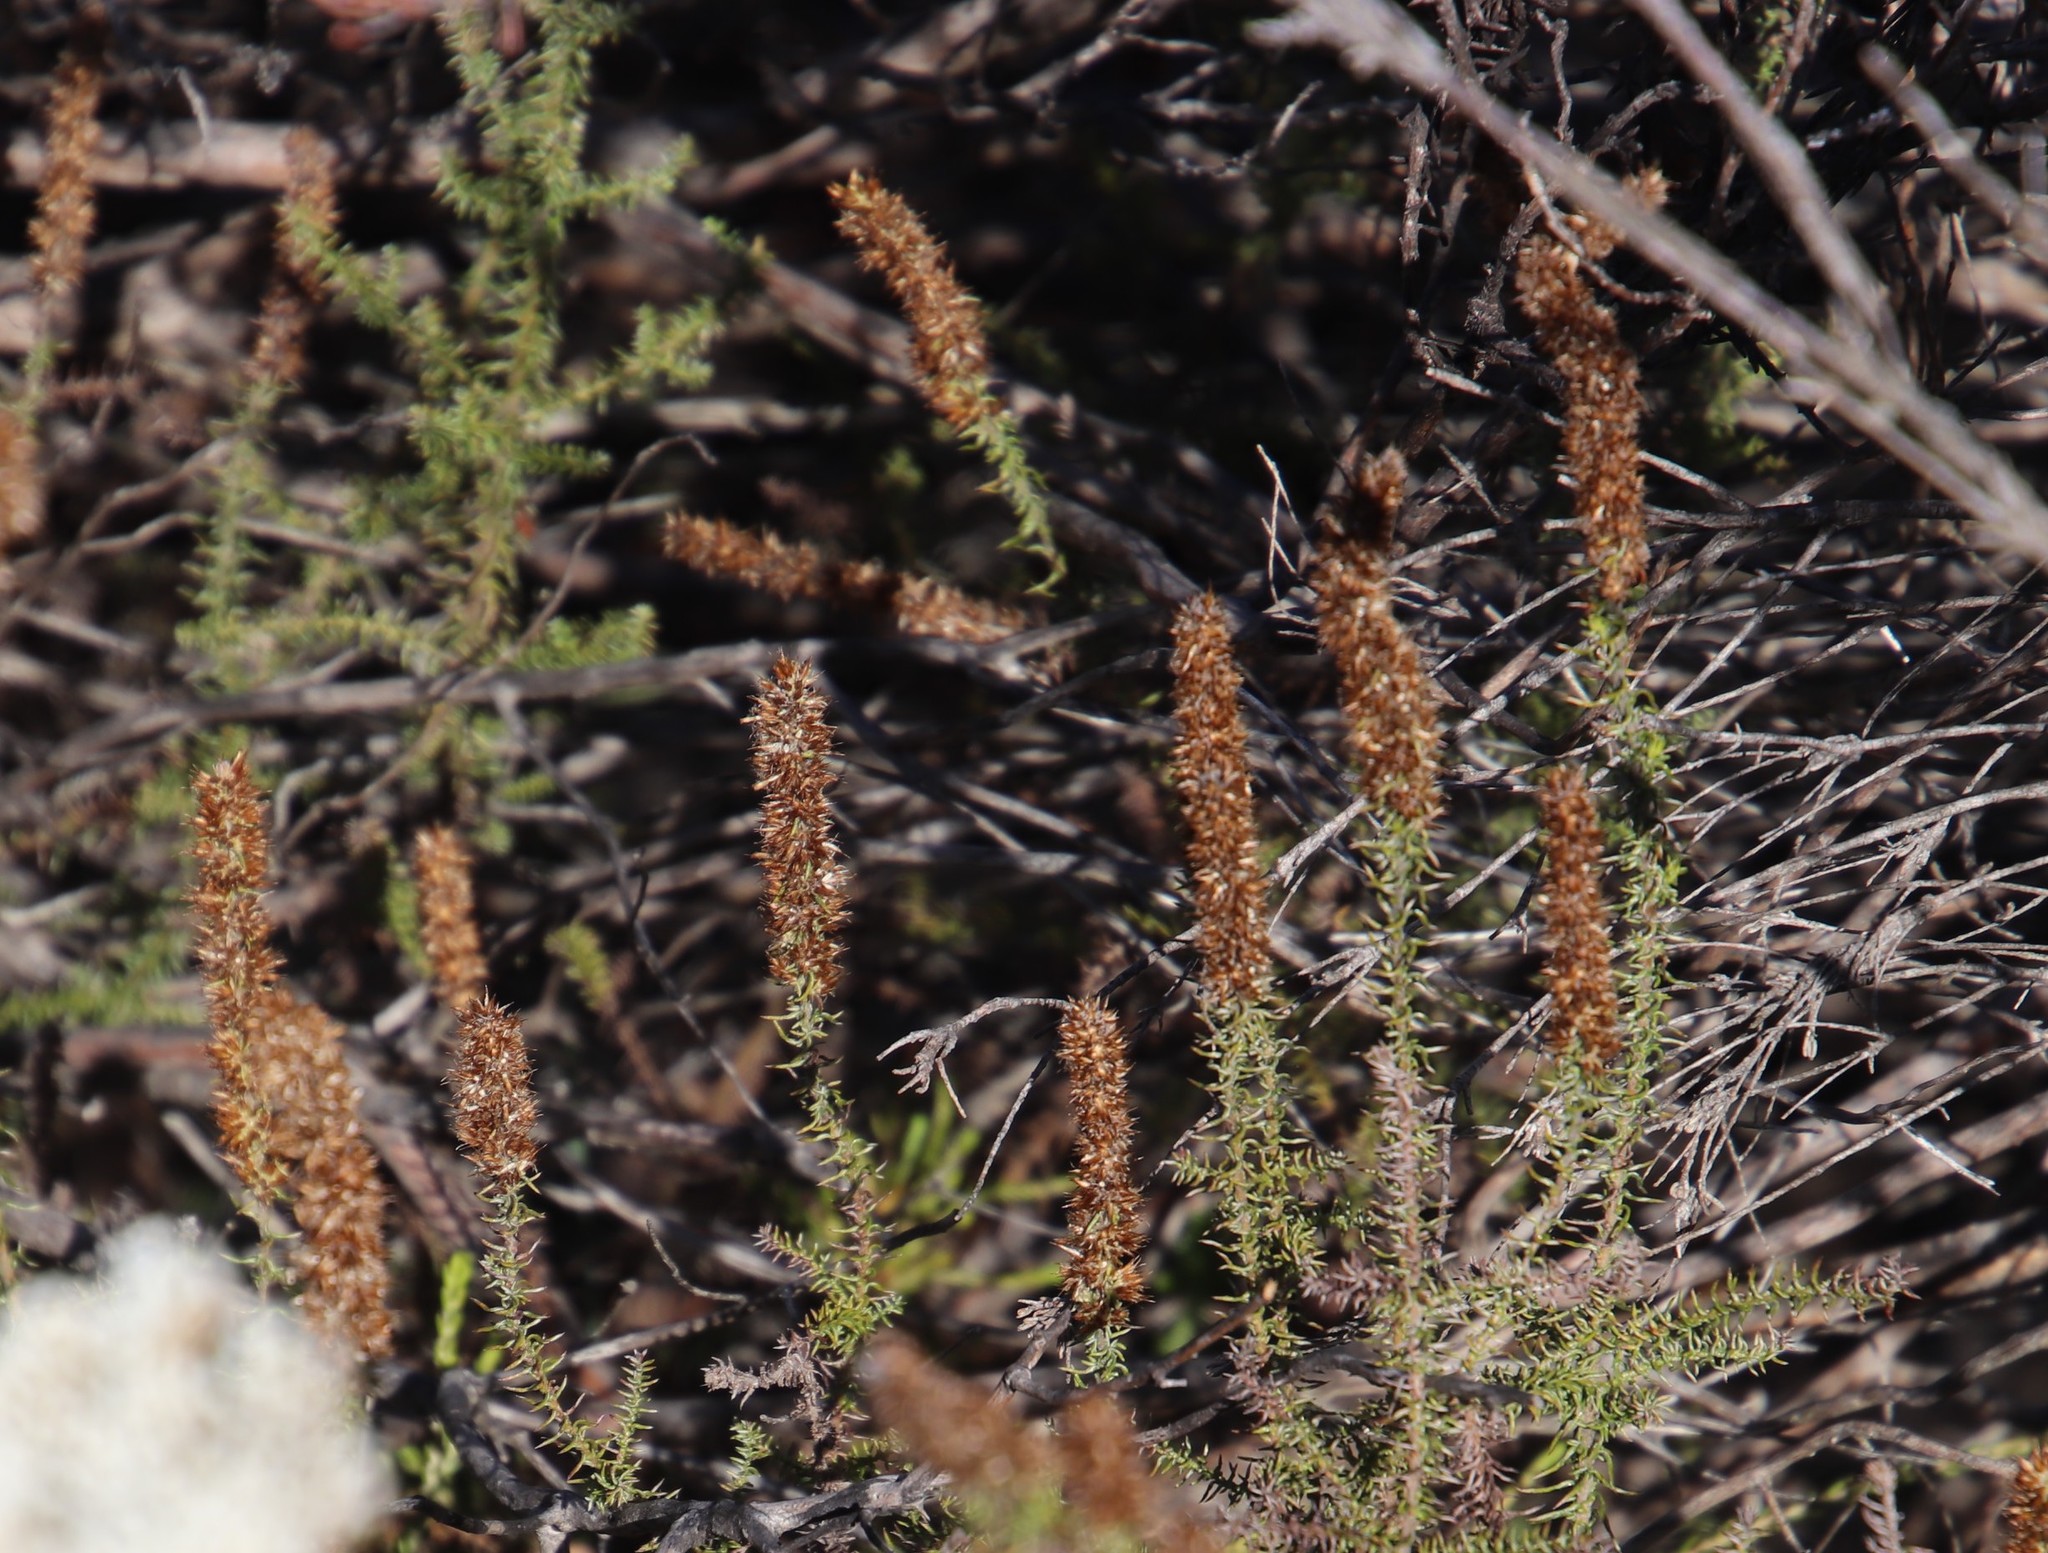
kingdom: Plantae
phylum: Tracheophyta
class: Magnoliopsida
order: Asterales
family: Asteraceae
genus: Seriphium
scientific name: Seriphium cinereum
